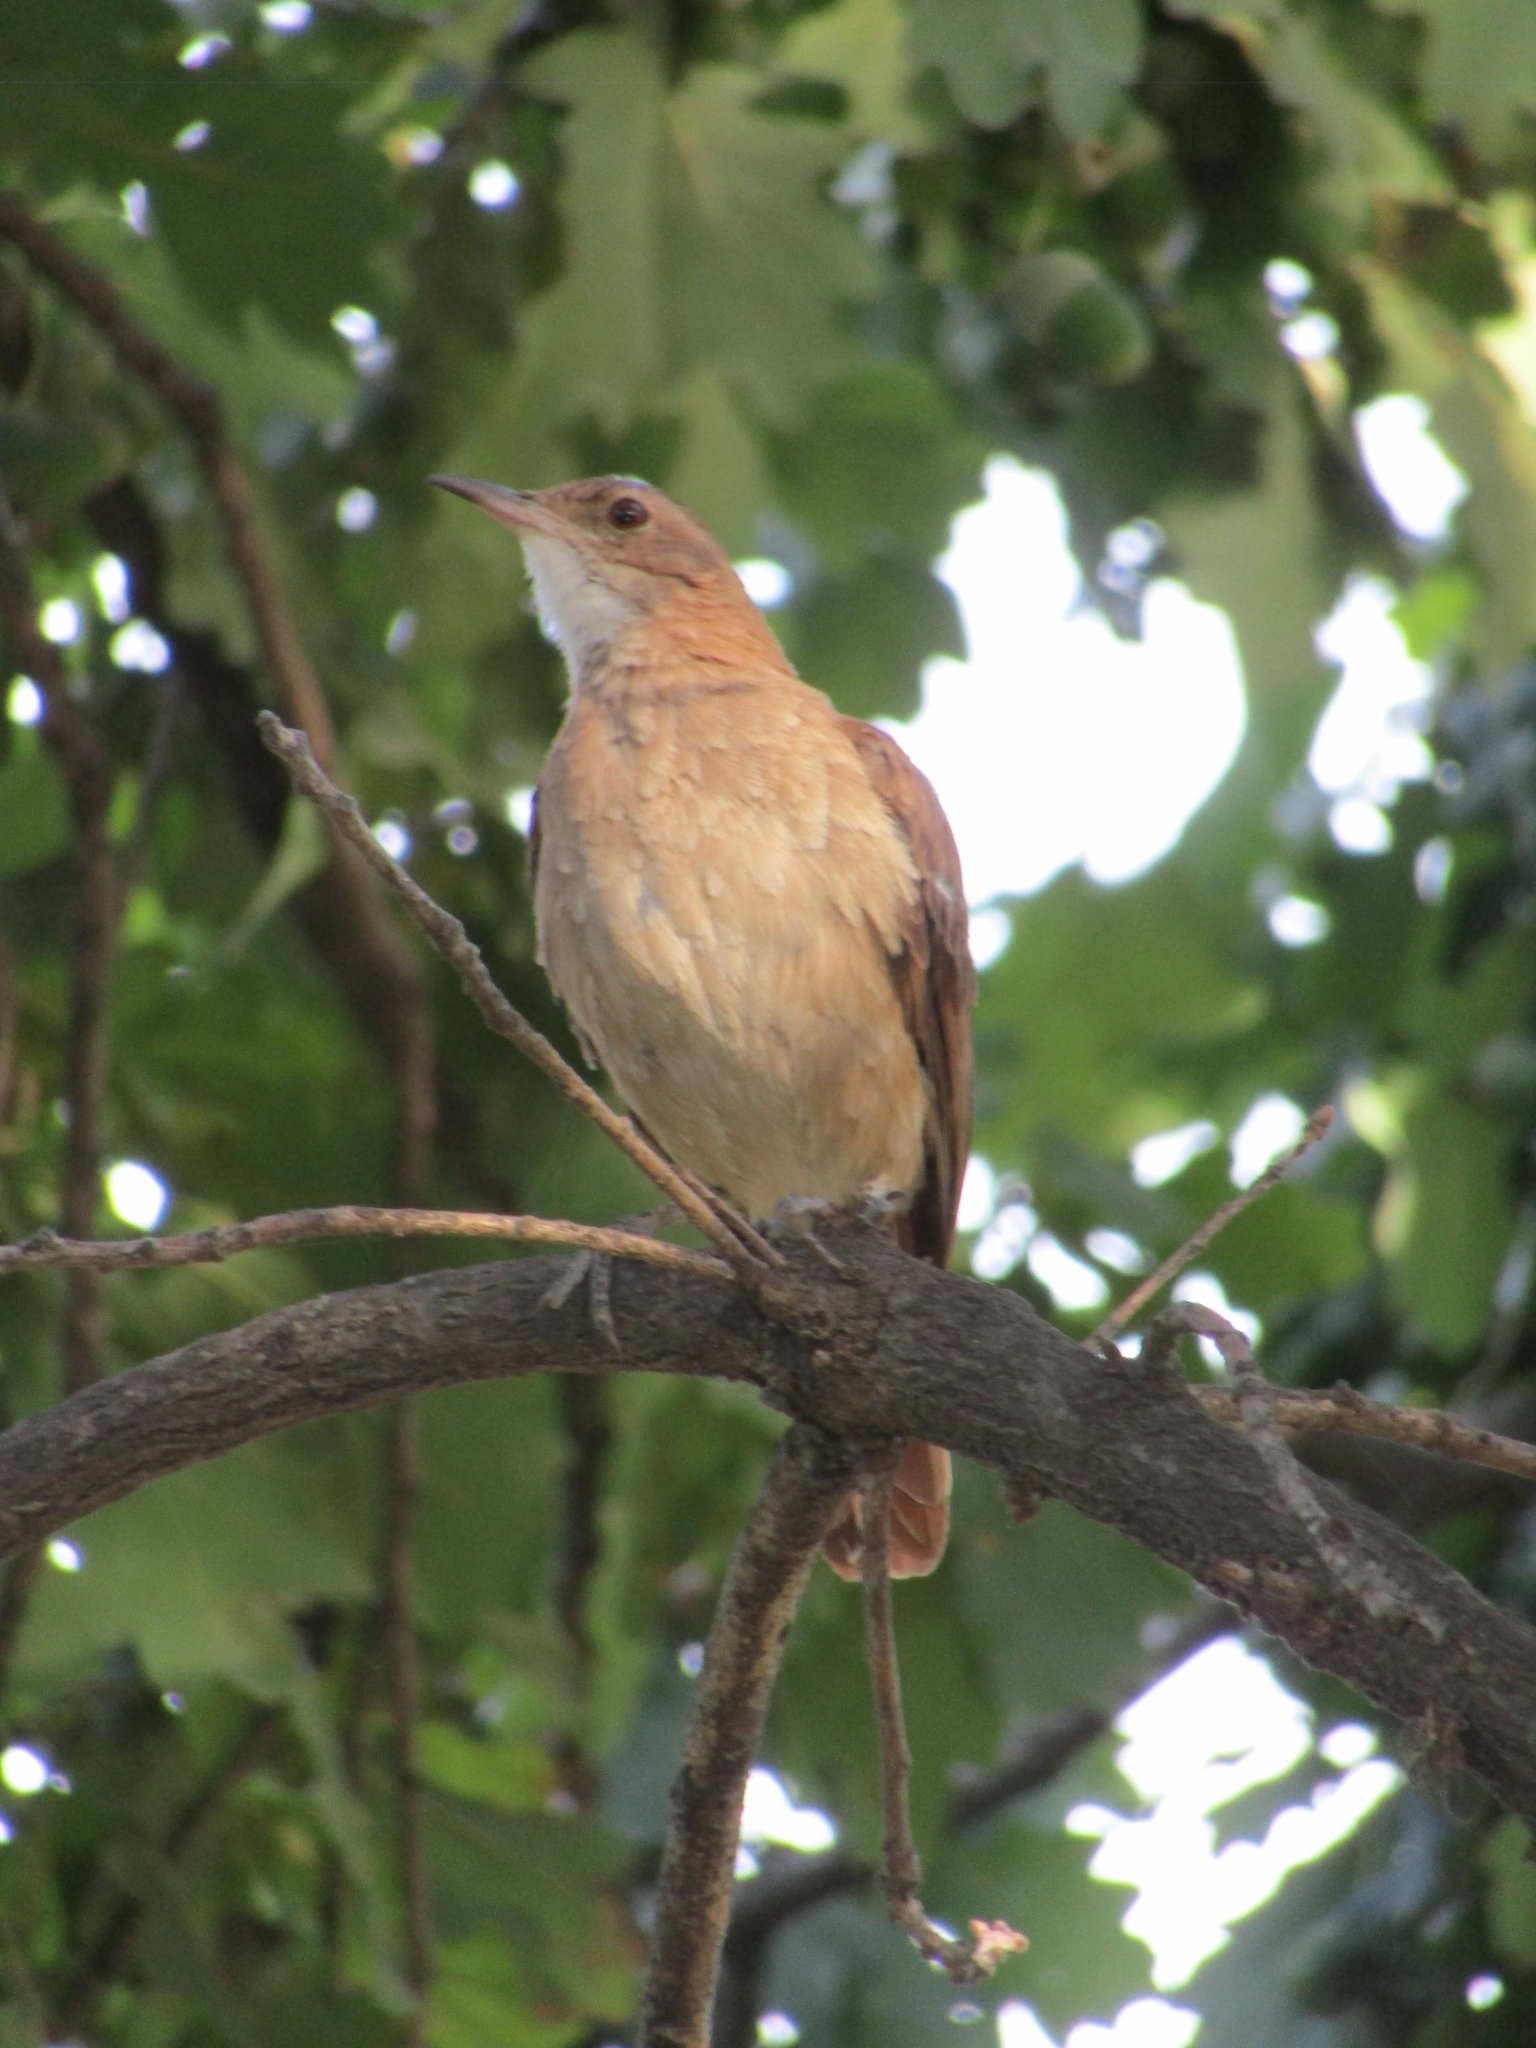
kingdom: Animalia
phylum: Chordata
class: Aves
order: Passeriformes
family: Furnariidae
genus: Furnarius
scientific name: Furnarius rufus
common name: Rufous hornero
